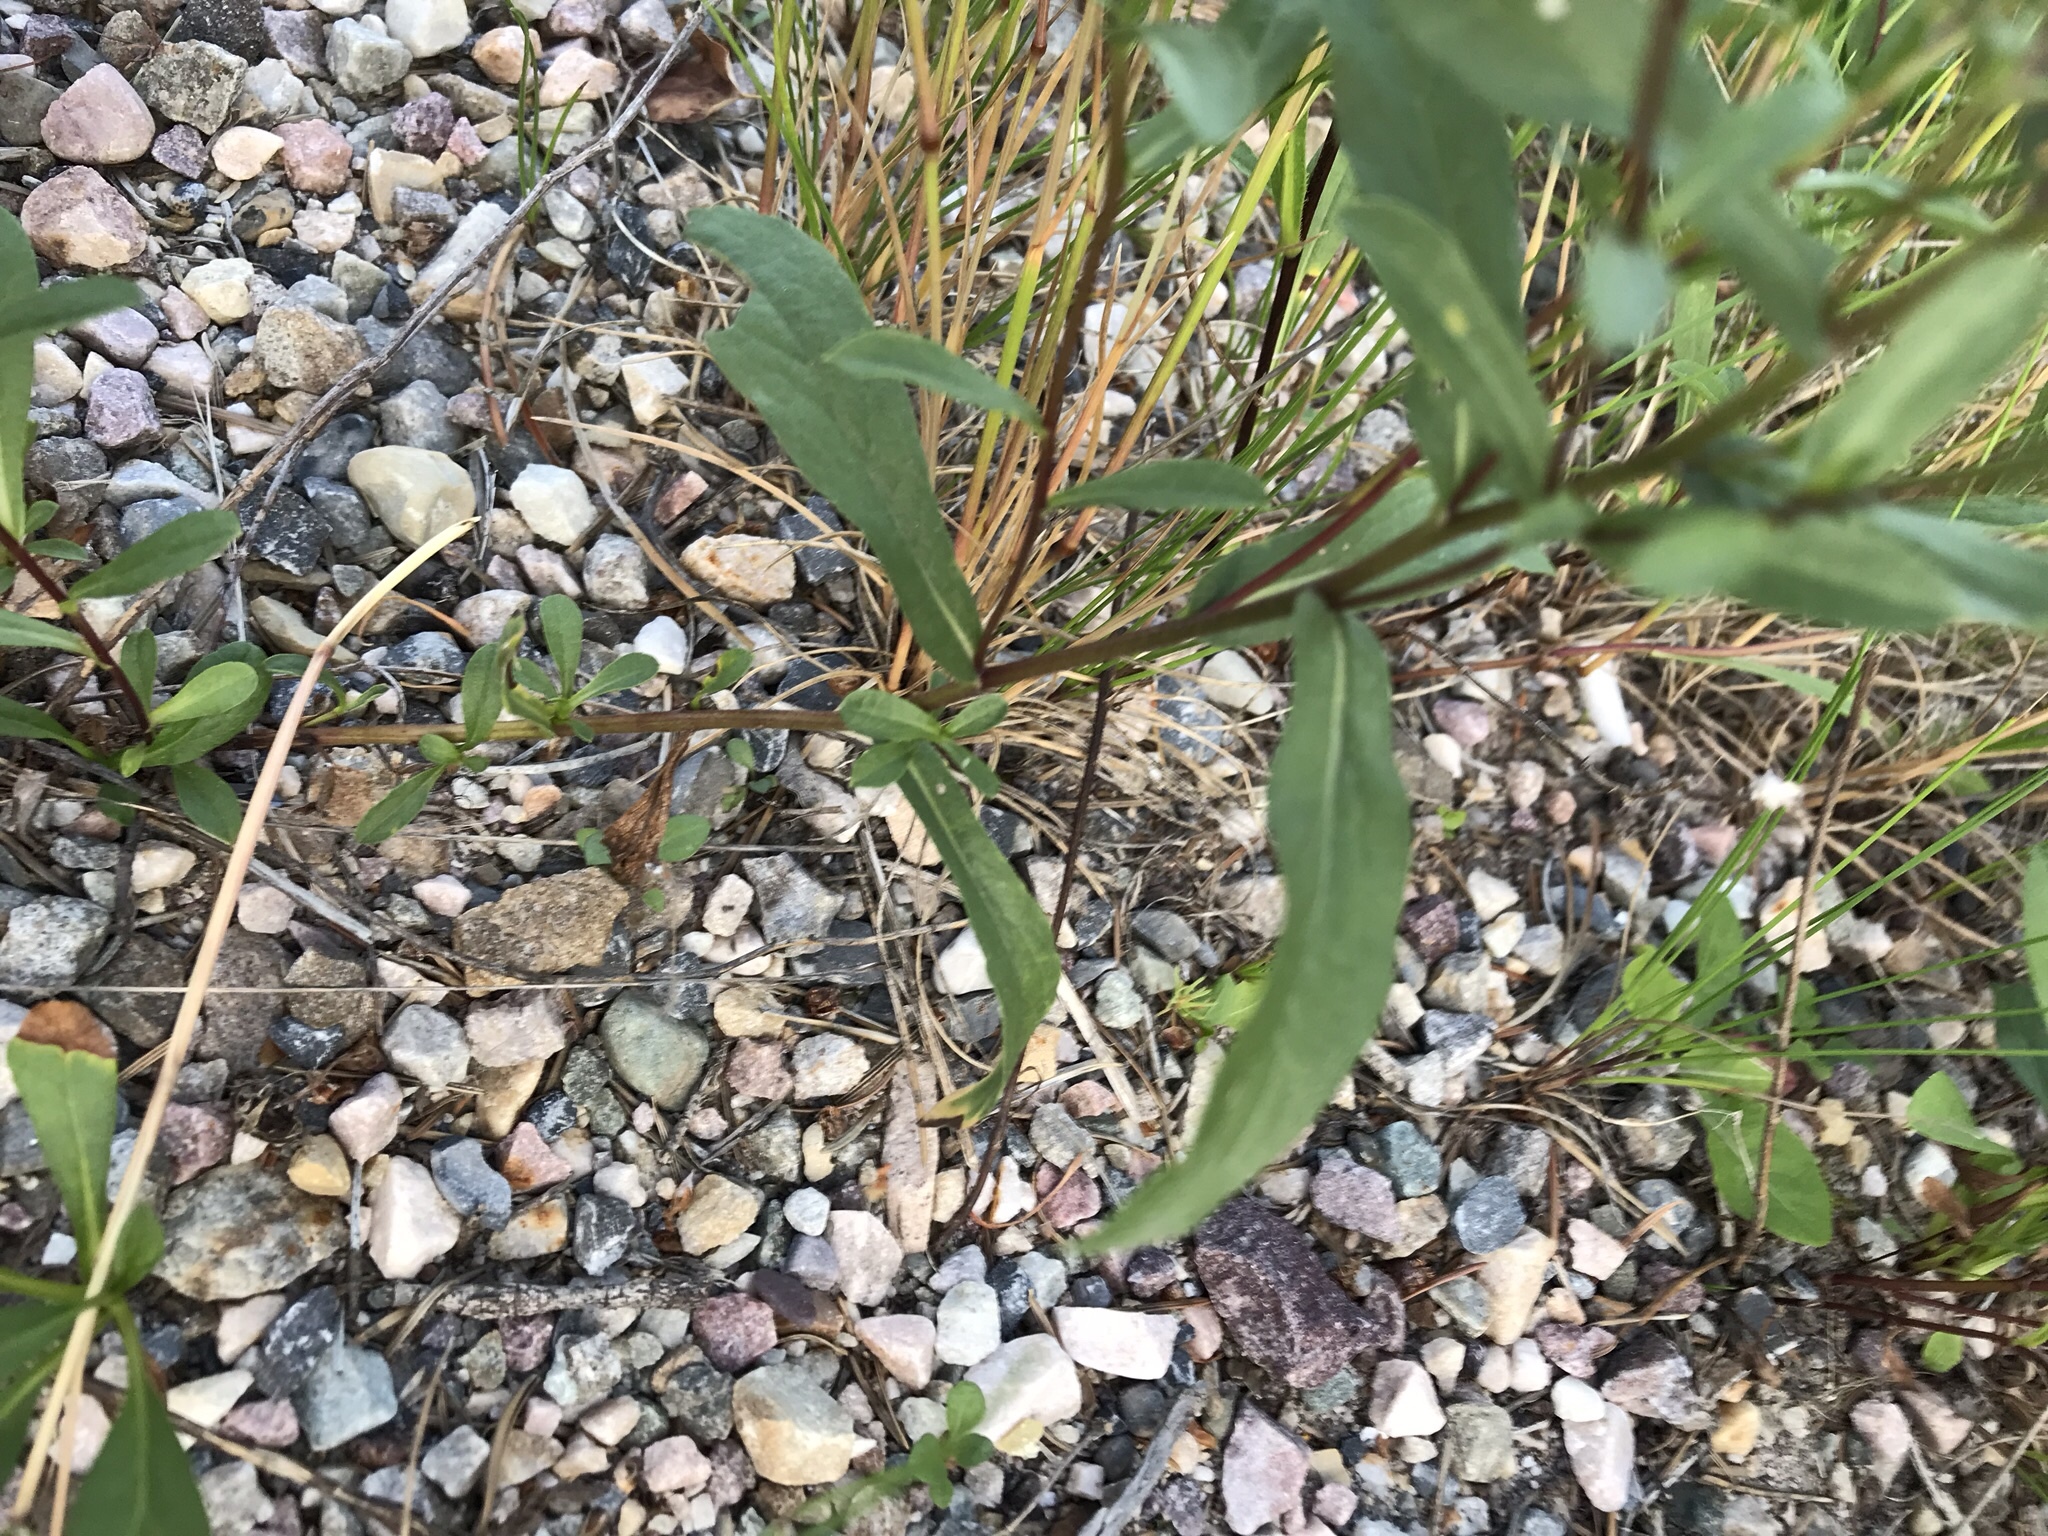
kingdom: Plantae
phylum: Tracheophyta
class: Magnoliopsida
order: Asterales
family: Asteraceae
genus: Eurybia
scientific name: Eurybia sibirica
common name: Arctic aster
